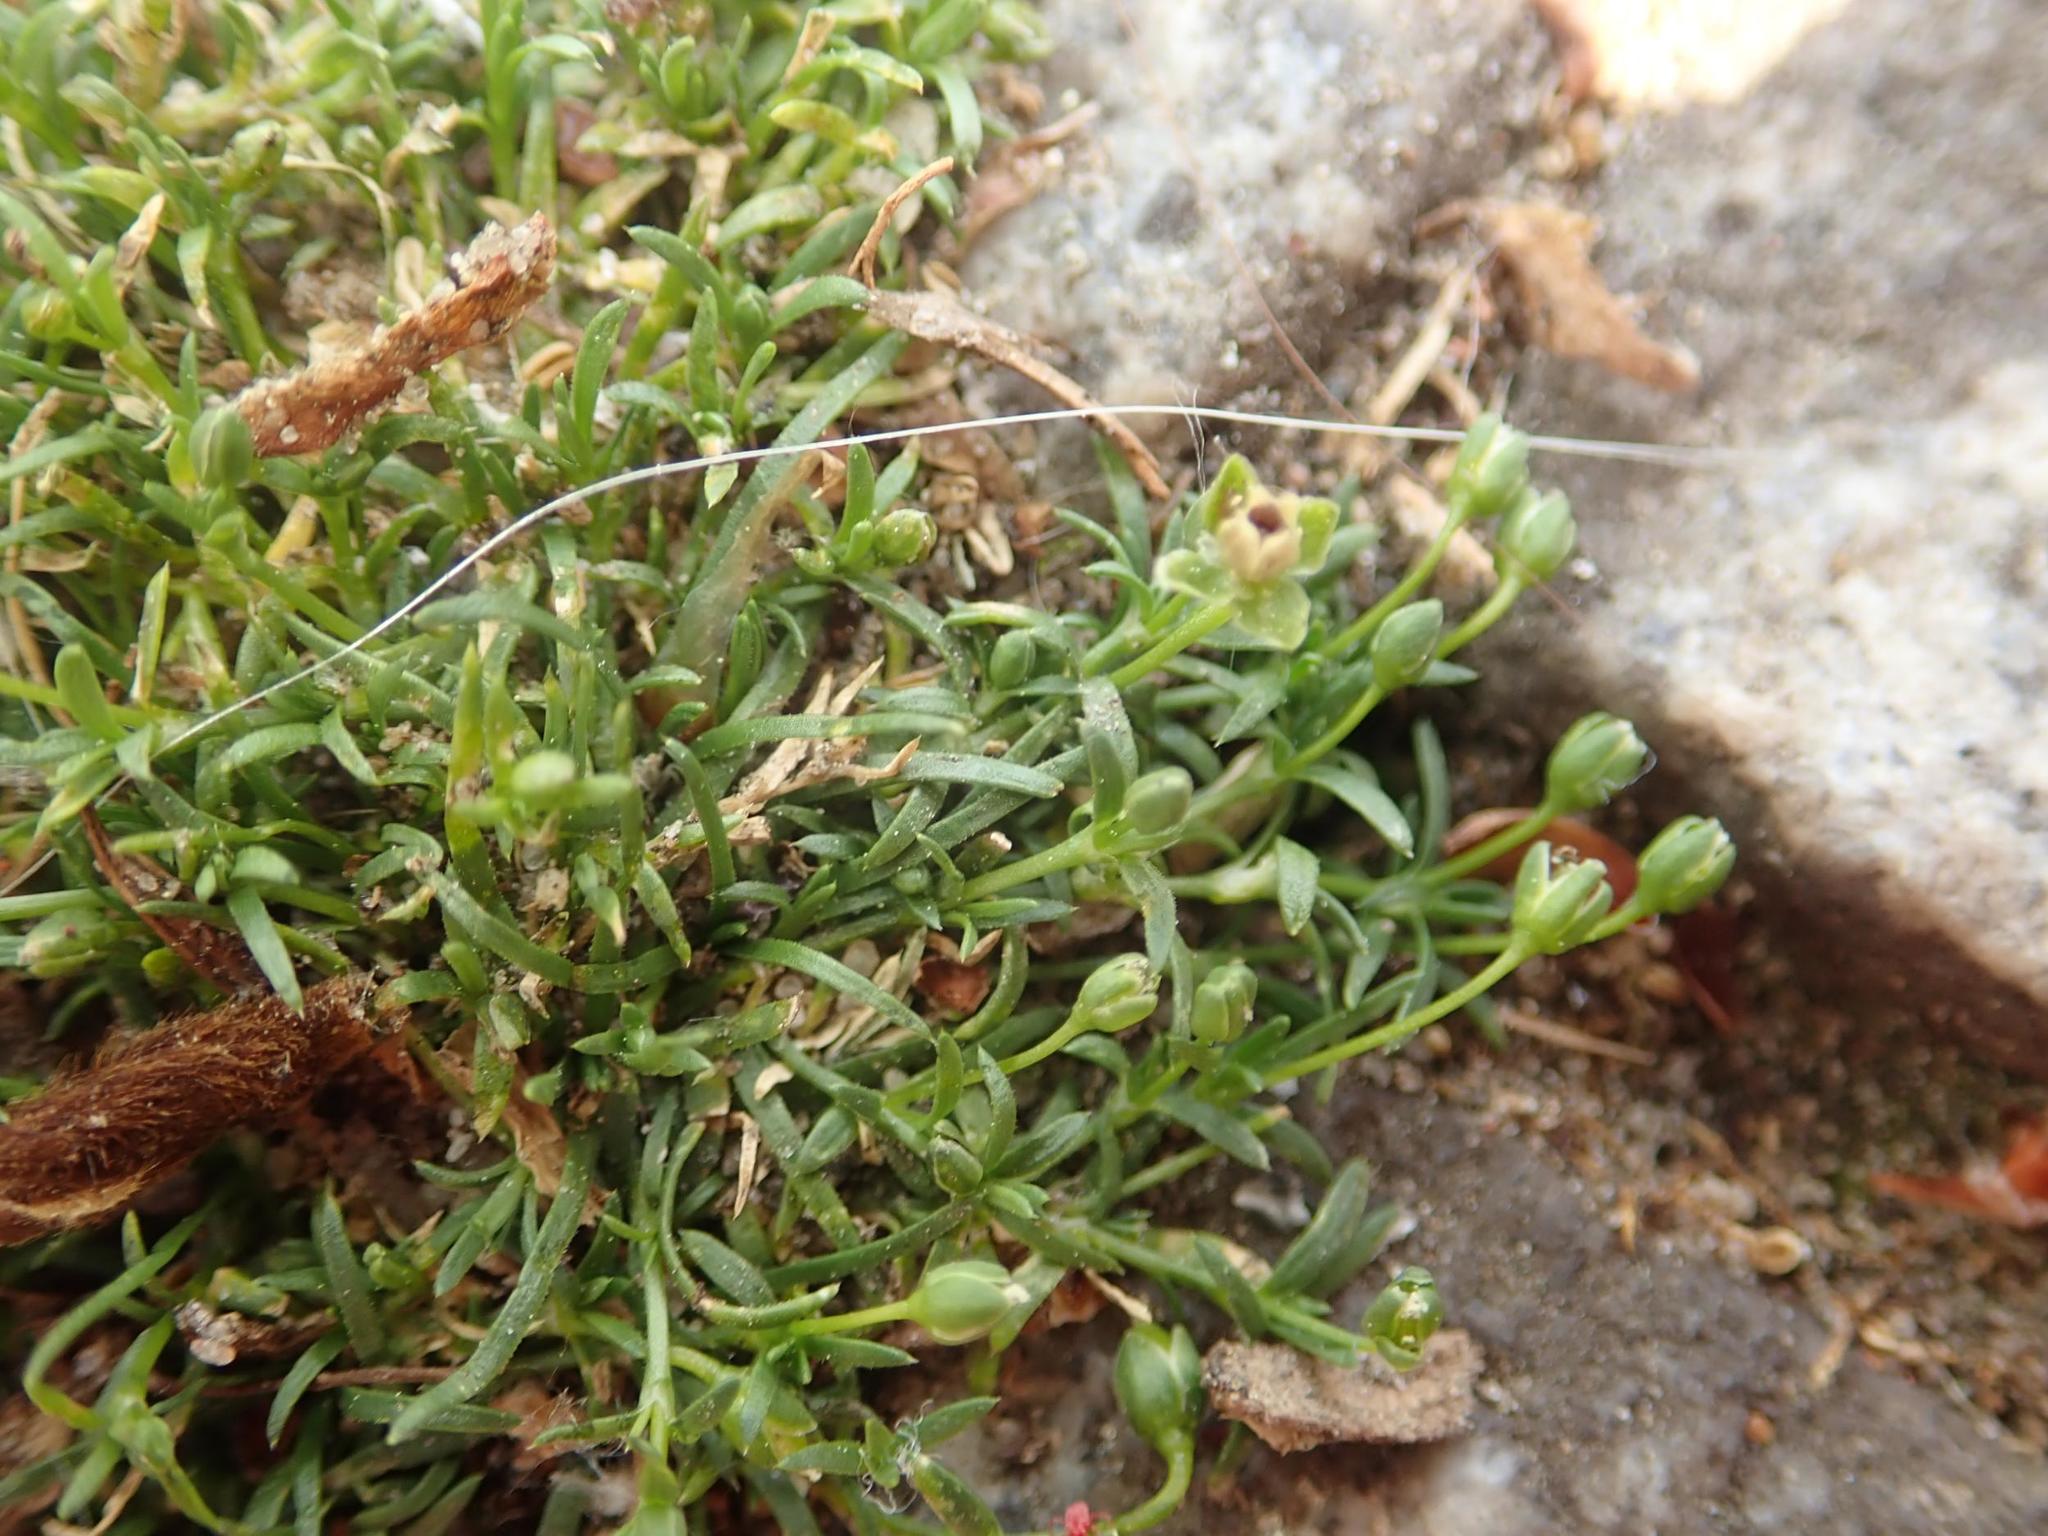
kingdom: Plantae
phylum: Tracheophyta
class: Magnoliopsida
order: Caryophyllales
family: Caryophyllaceae
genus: Sagina
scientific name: Sagina procumbens
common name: Procumbent pearlwort
